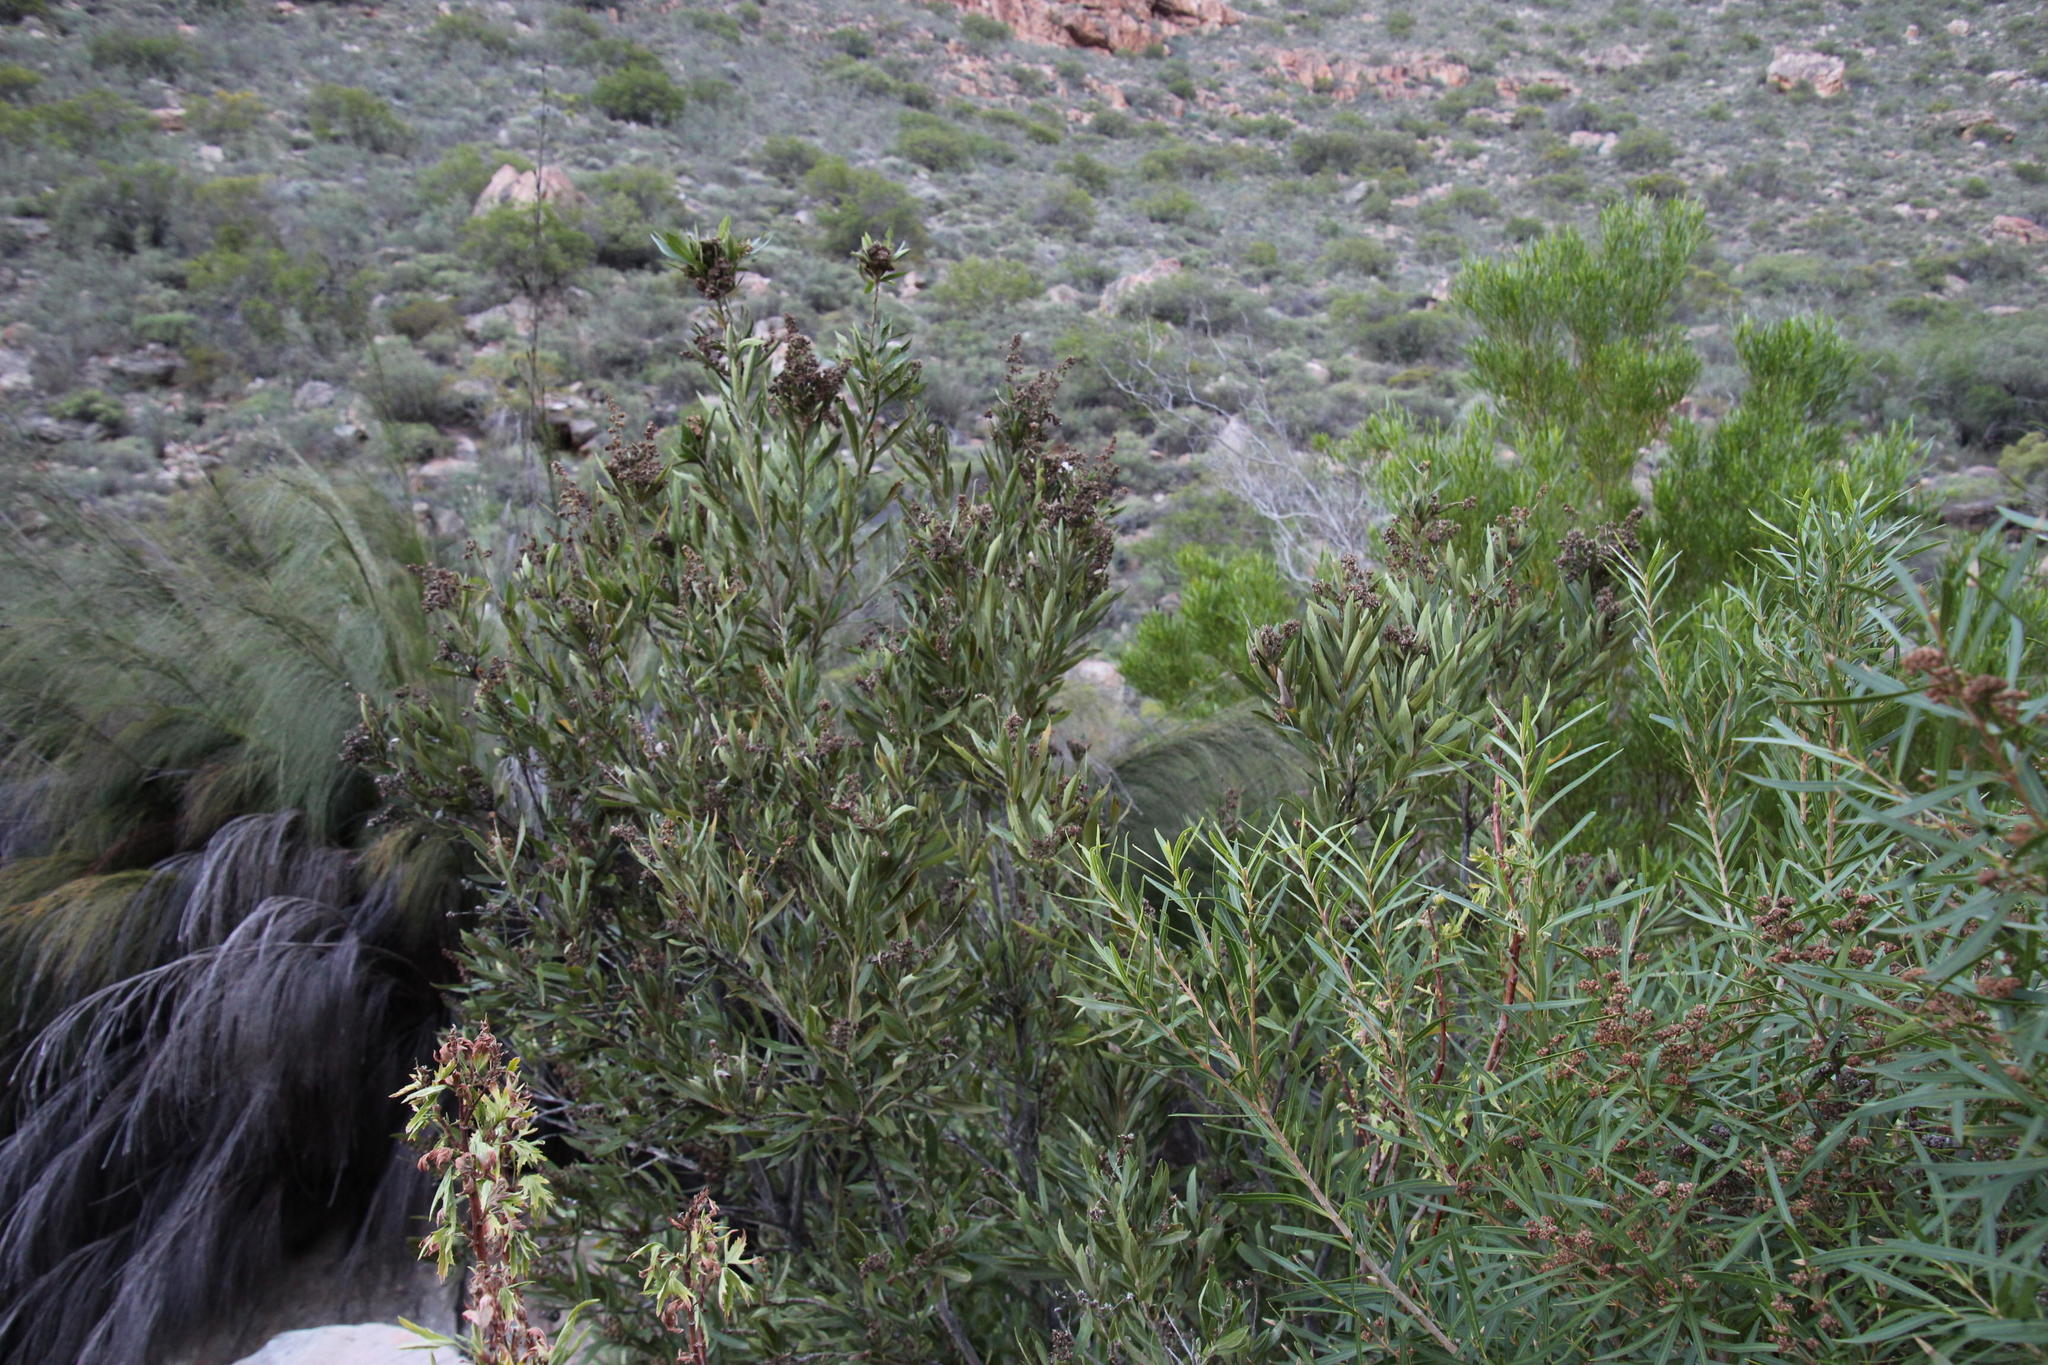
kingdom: Plantae
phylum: Tracheophyta
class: Magnoliopsida
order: Asterales
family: Asteraceae
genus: Brachylaena
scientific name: Brachylaena neriifolia
